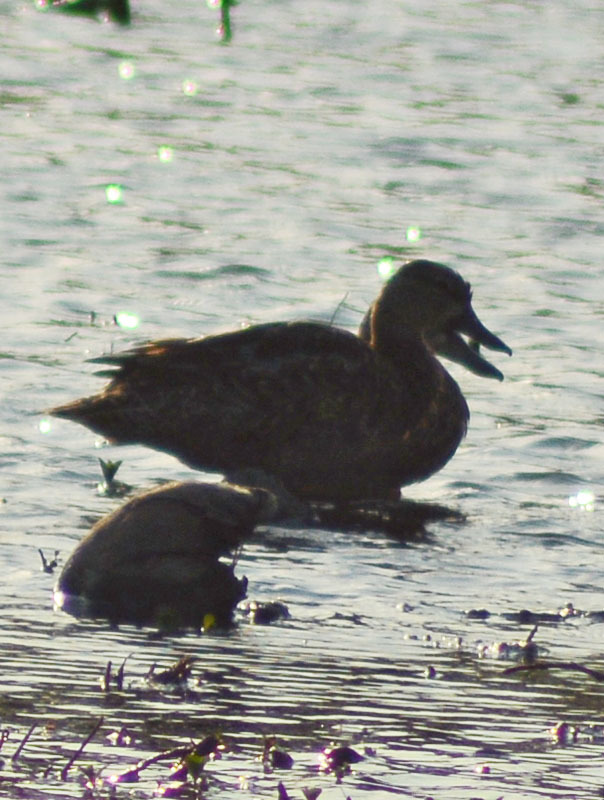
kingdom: Animalia
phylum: Chordata
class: Aves
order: Anseriformes
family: Anatidae
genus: Spatula
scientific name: Spatula discors
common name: Blue-winged teal
